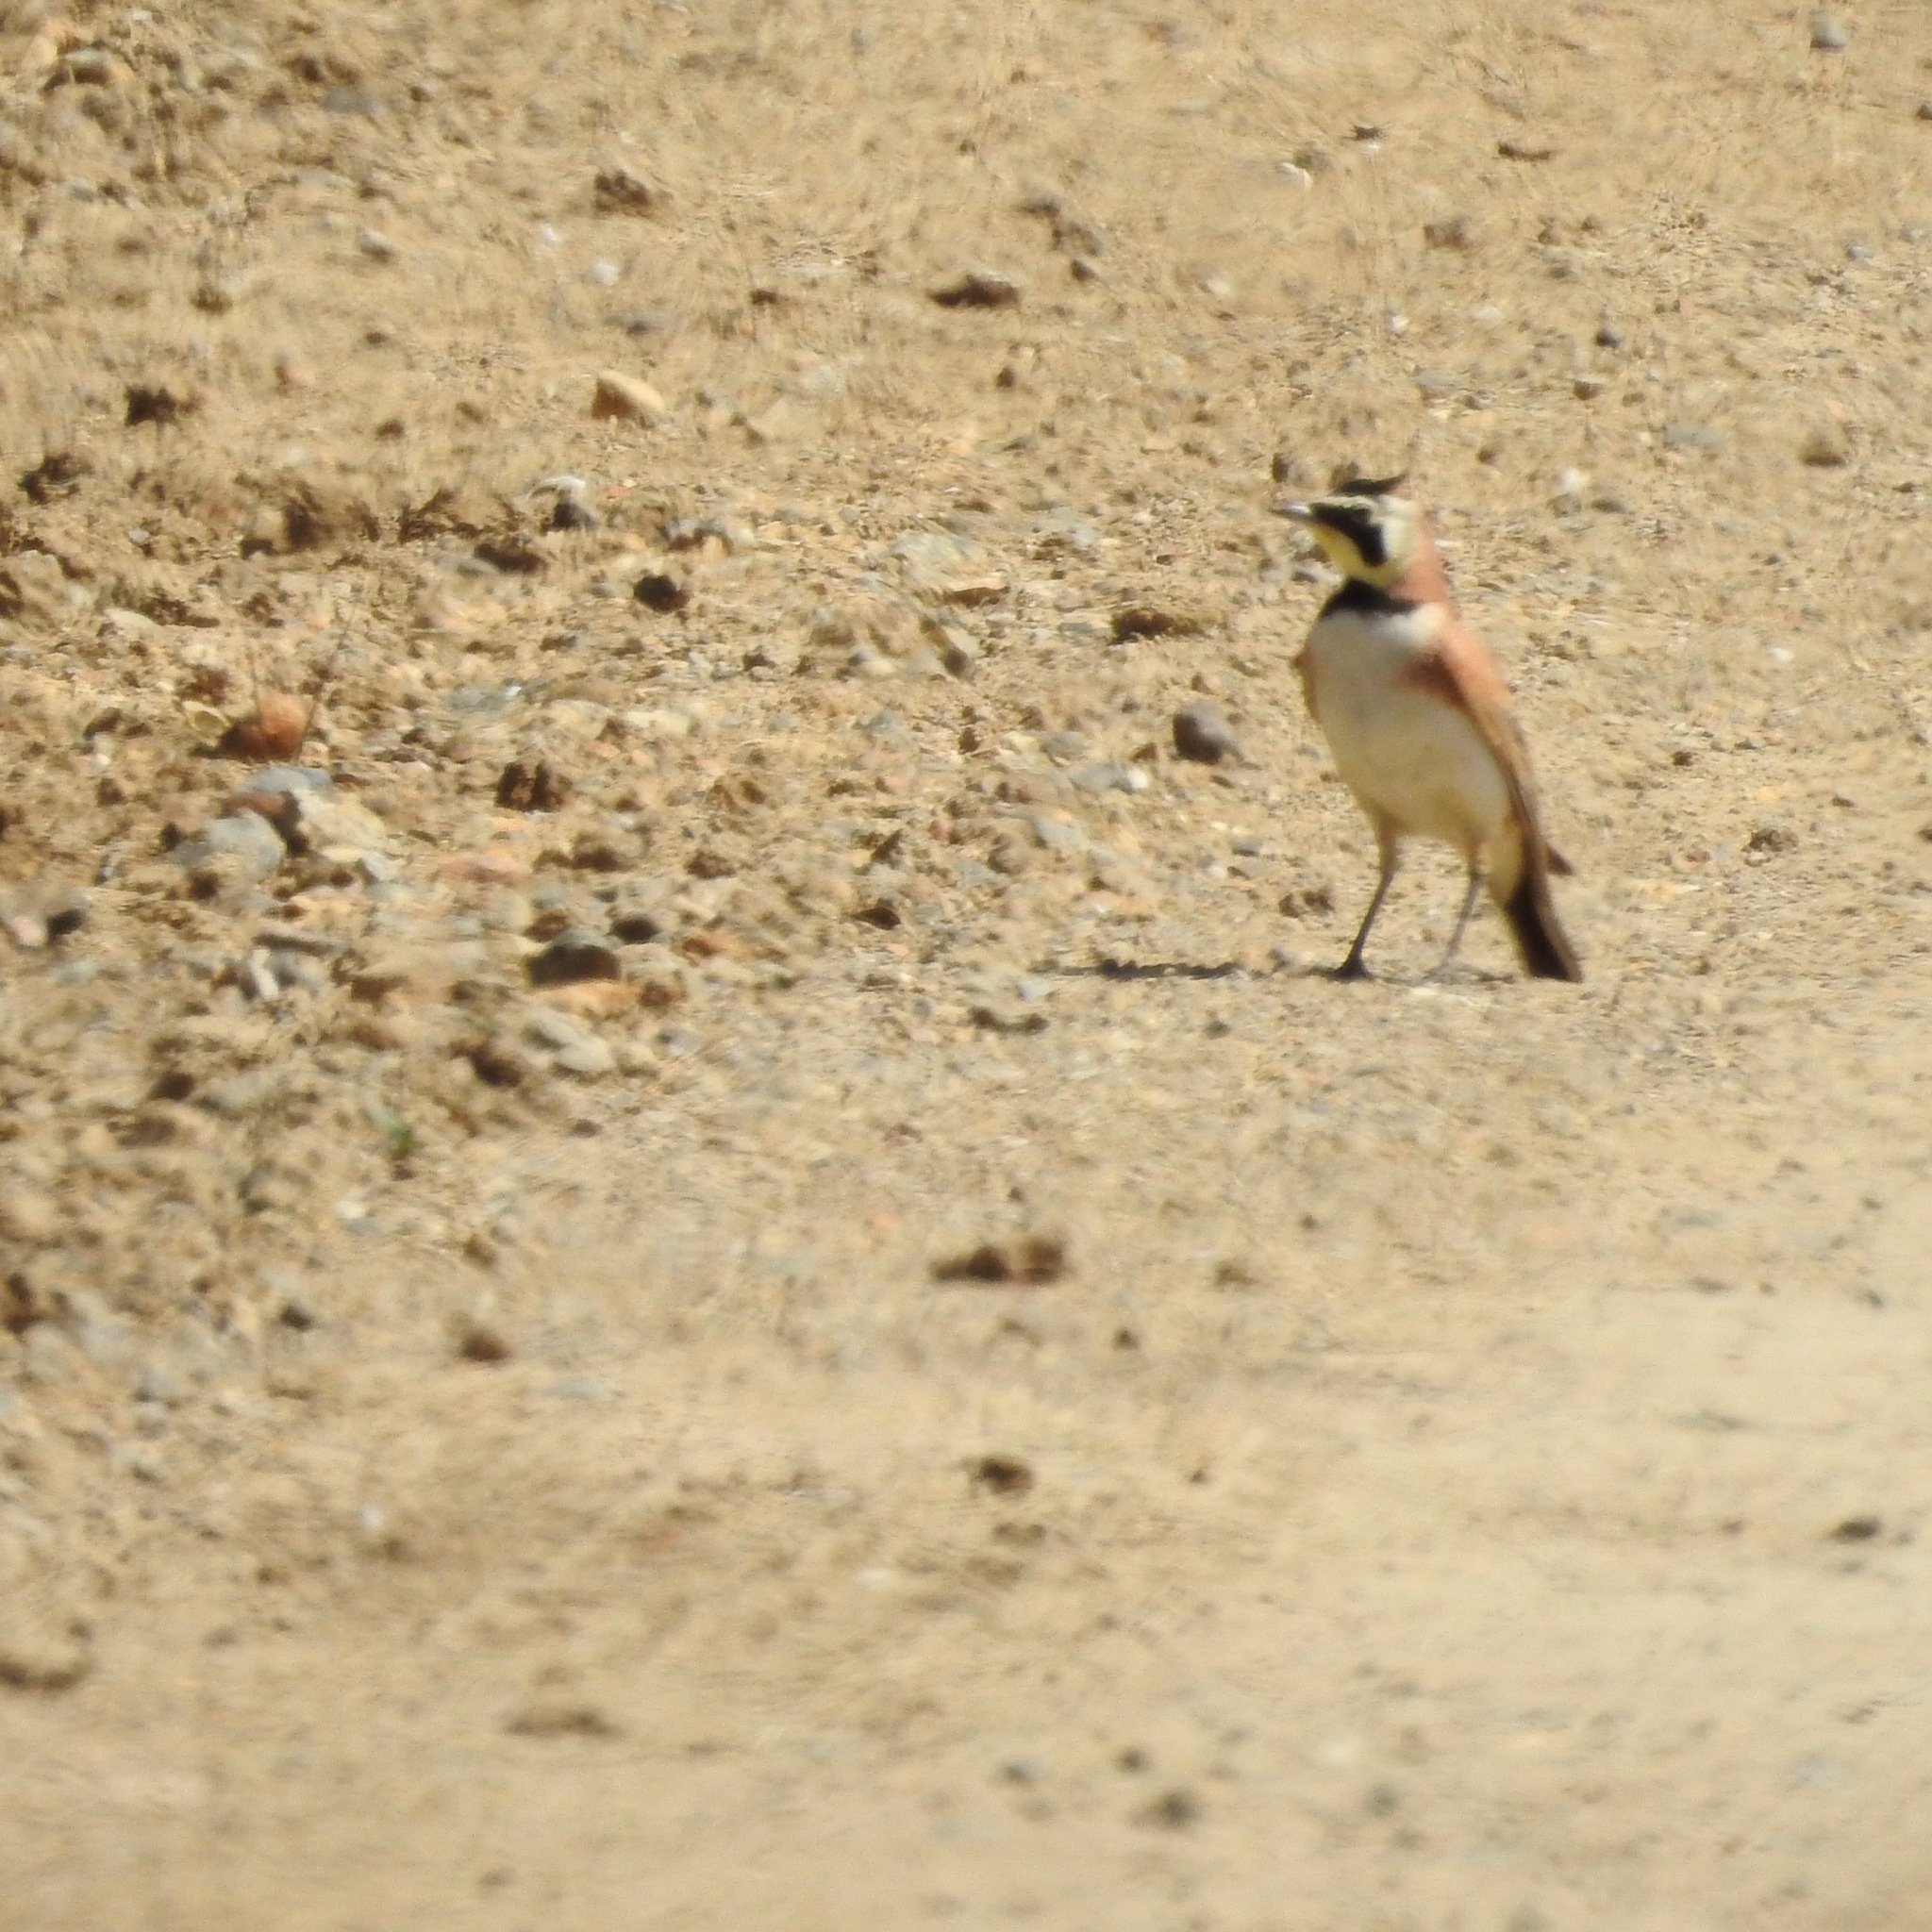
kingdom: Animalia
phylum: Chordata
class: Aves
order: Passeriformes
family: Alaudidae
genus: Eremophila
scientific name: Eremophila alpestris
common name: Horned lark
